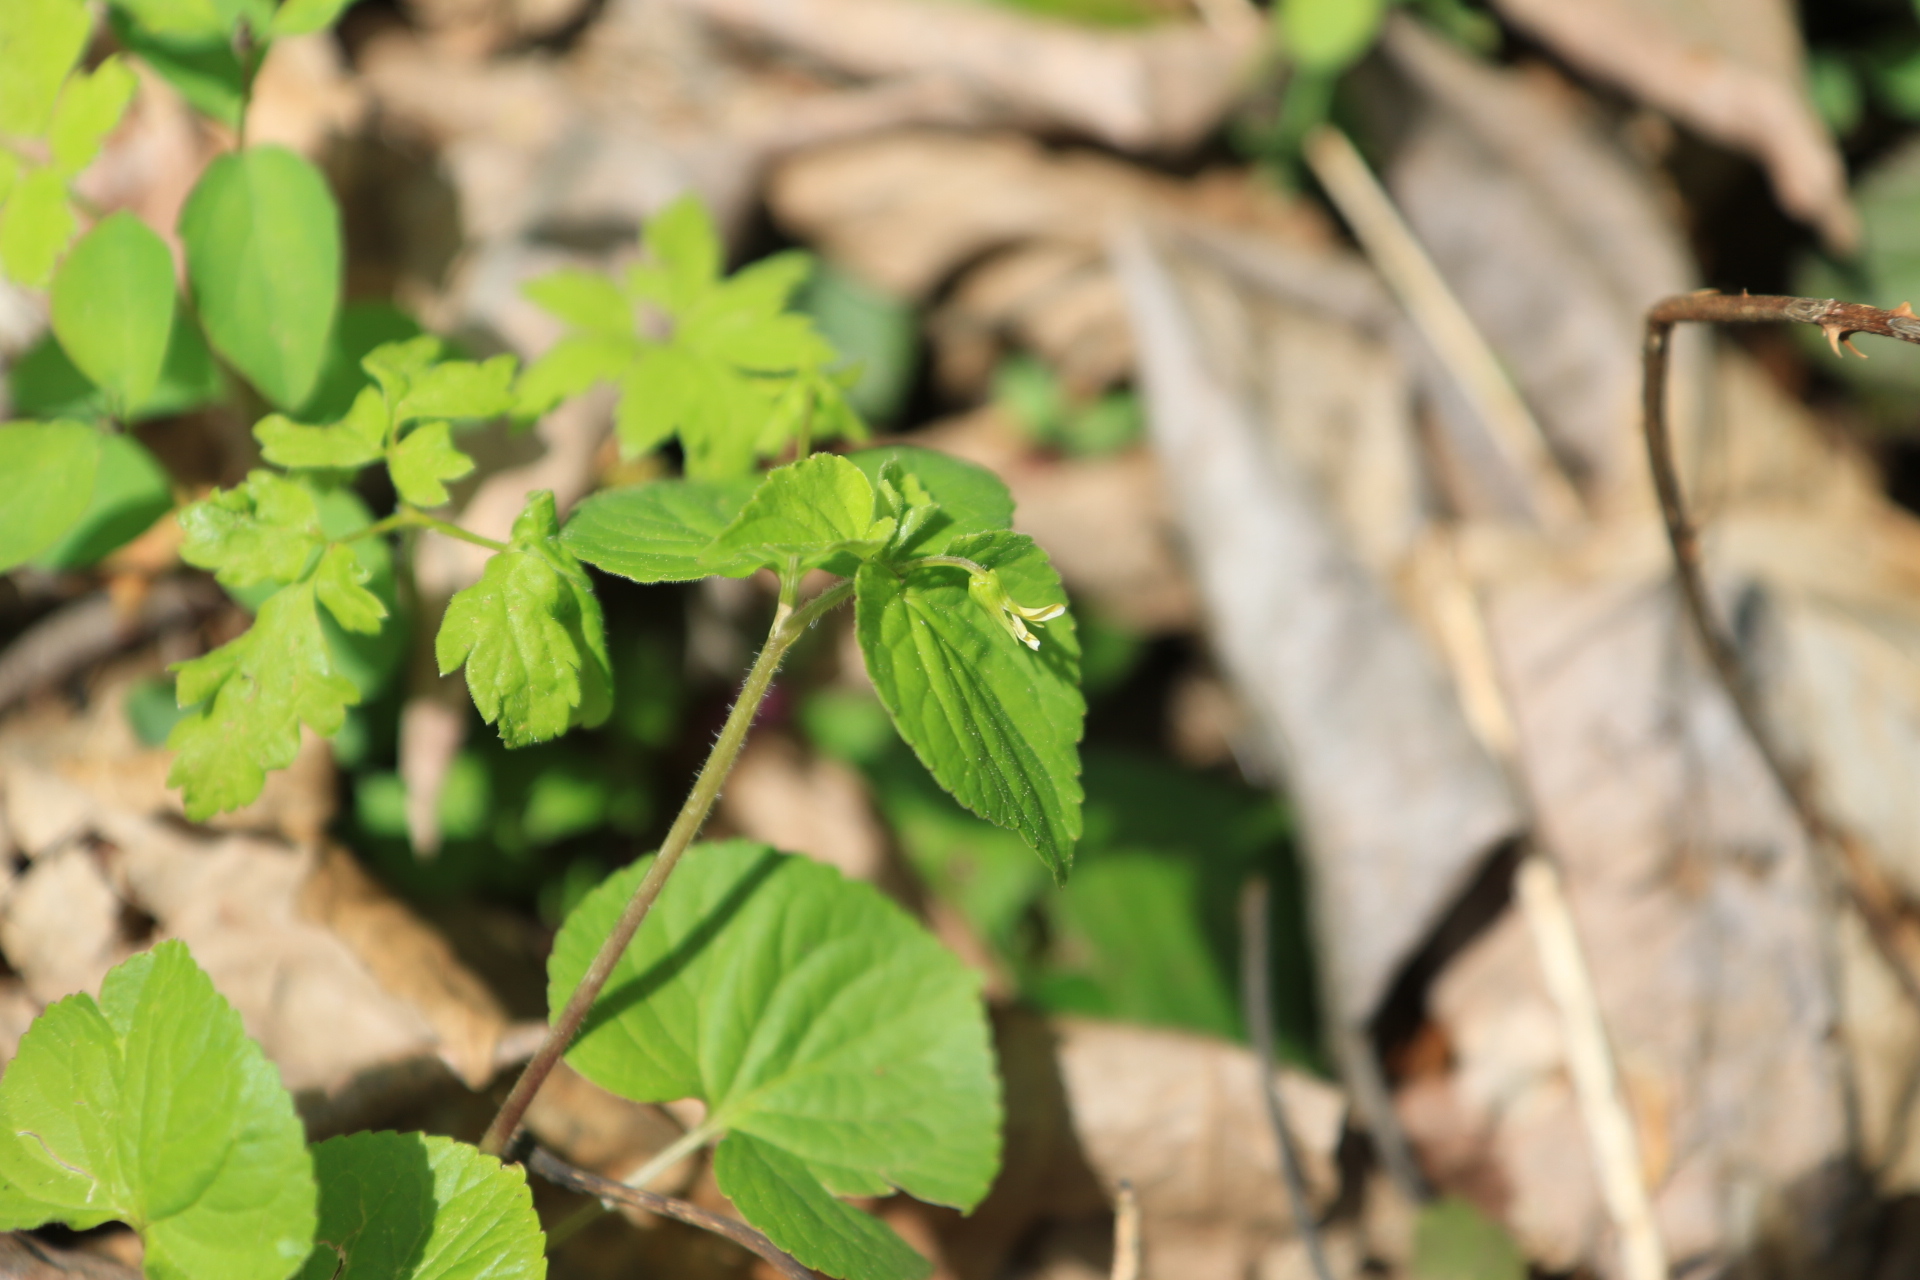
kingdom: Plantae
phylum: Tracheophyta
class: Magnoliopsida
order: Malpighiales
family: Violaceae
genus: Viola
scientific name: Viola glabella
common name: Stream violet
